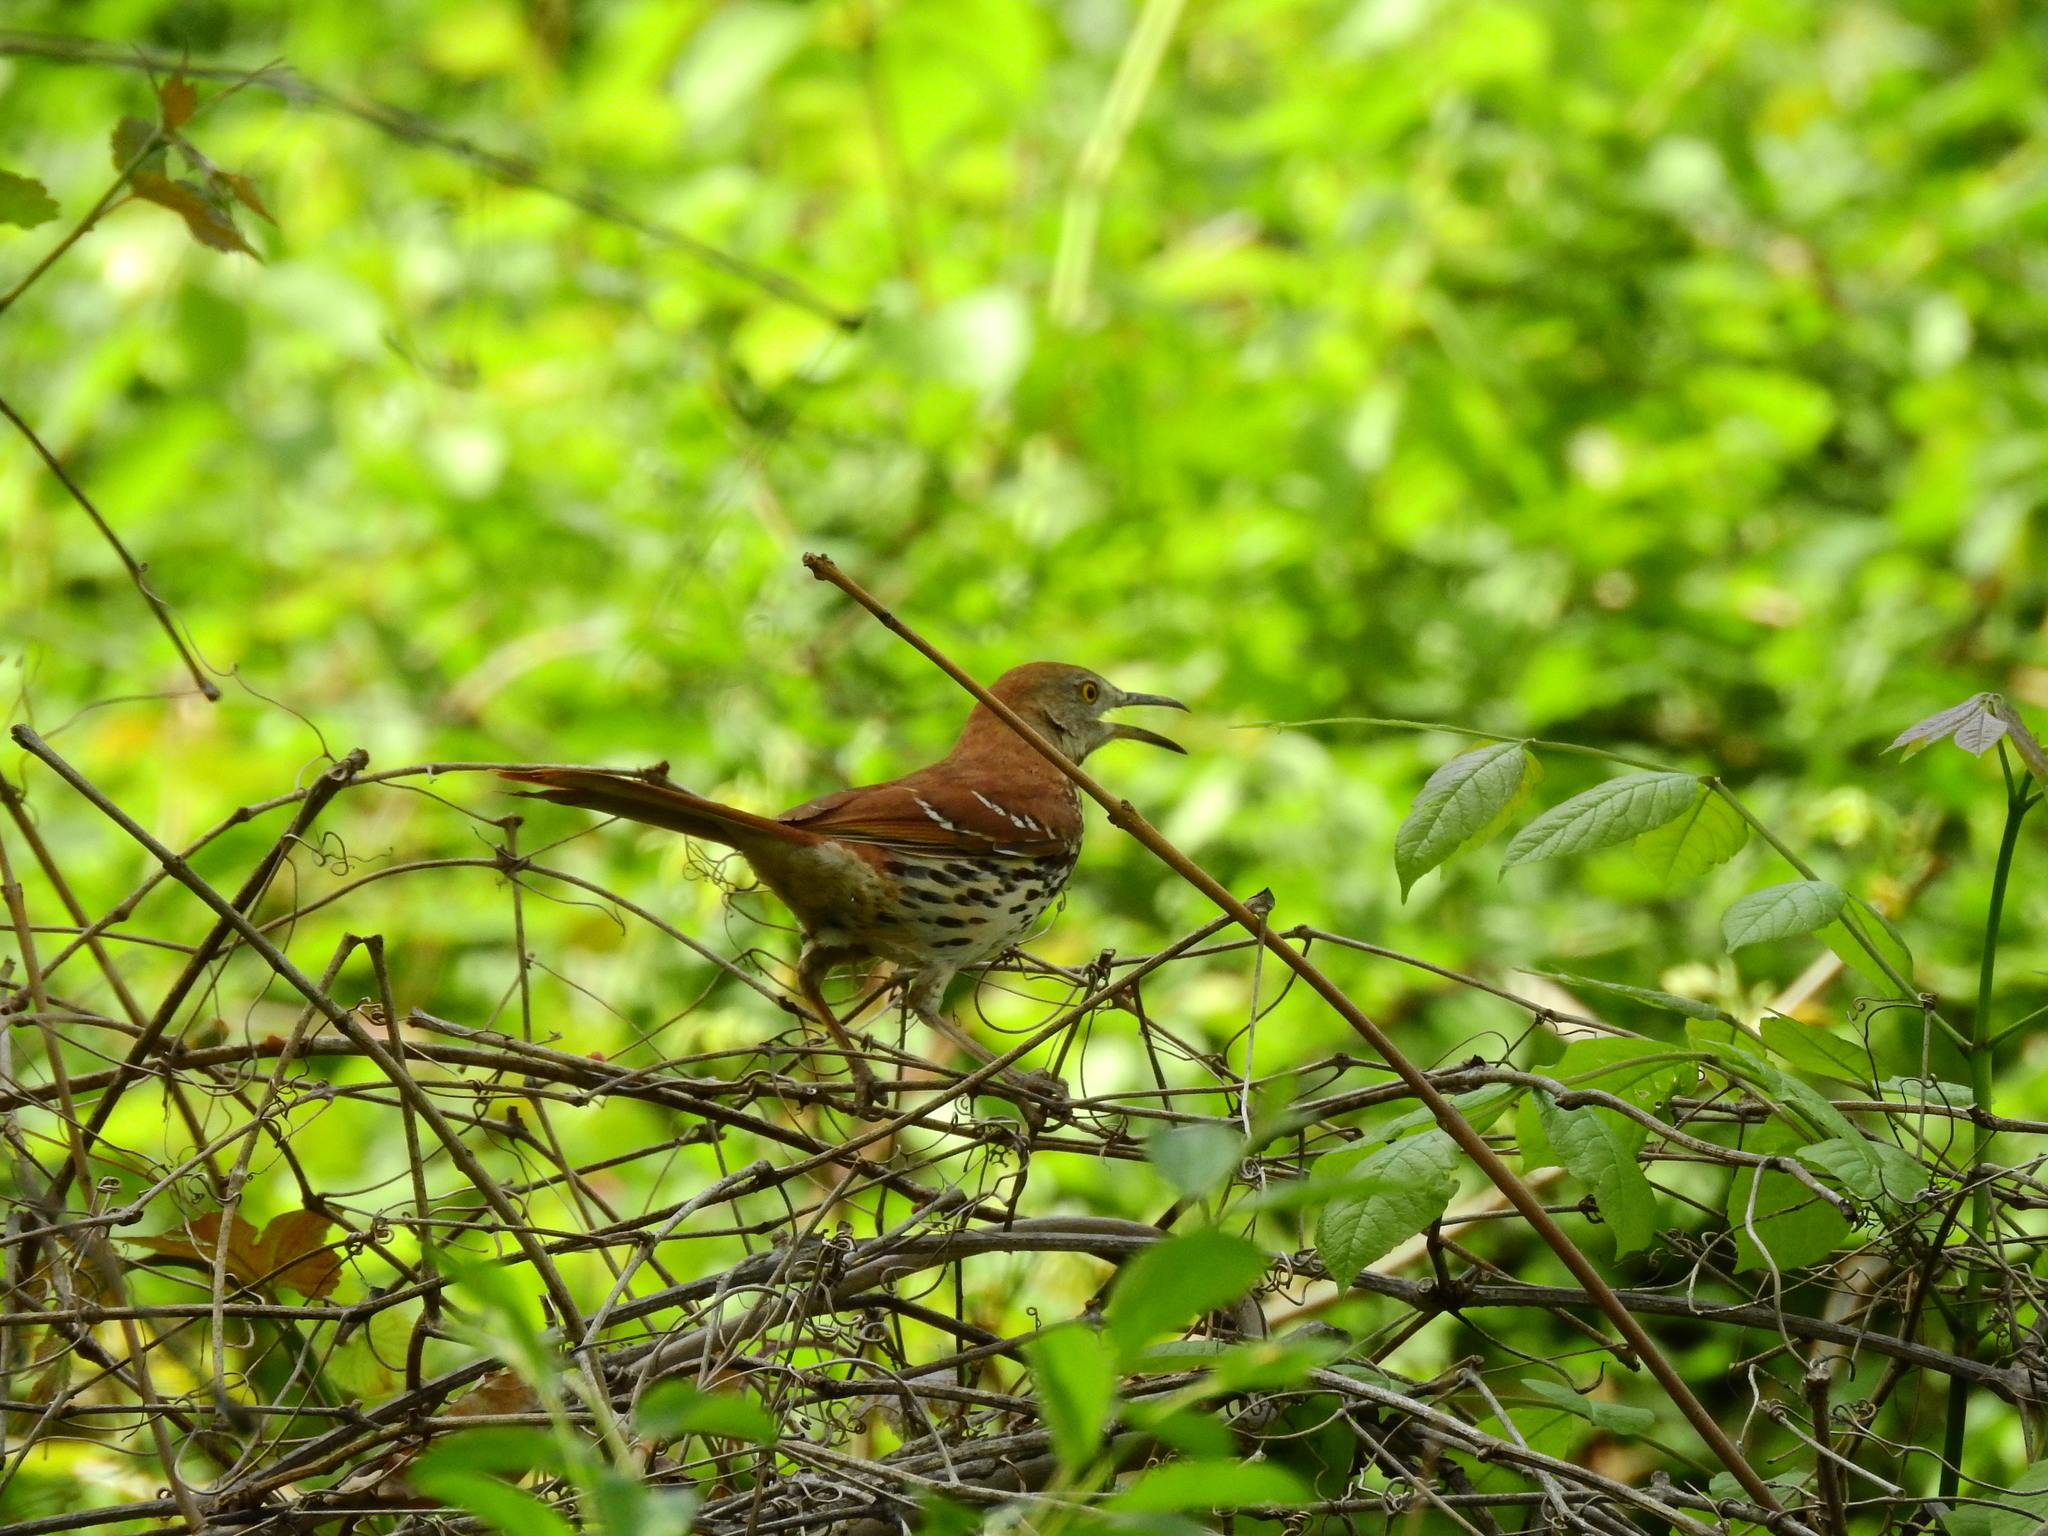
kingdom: Animalia
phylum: Chordata
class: Aves
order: Passeriformes
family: Mimidae
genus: Toxostoma
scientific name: Toxostoma rufum
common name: Brown thrasher
